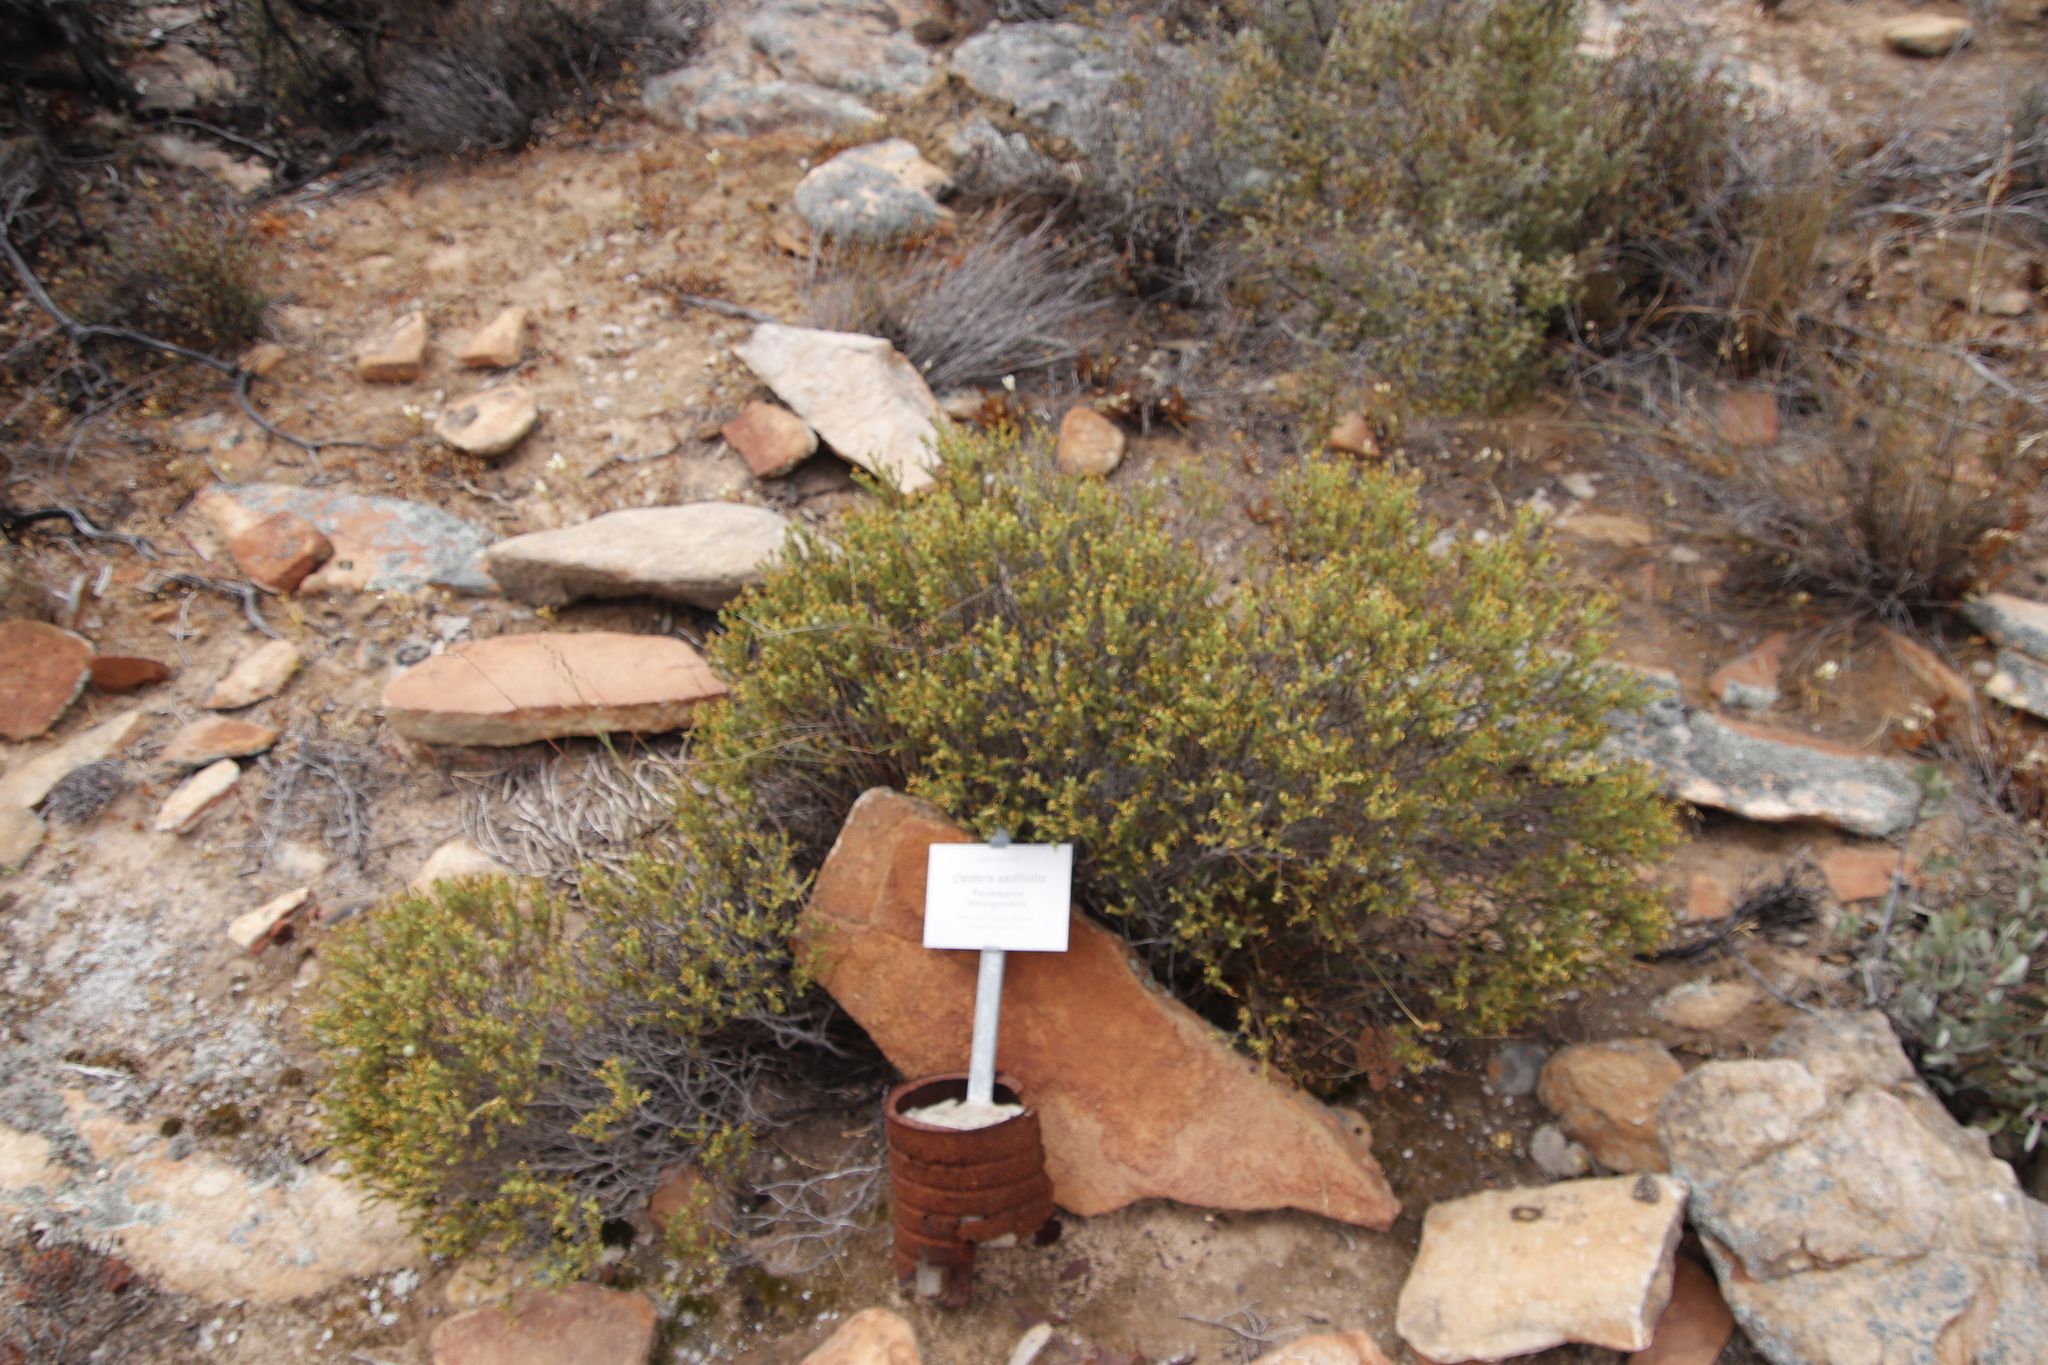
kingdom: Plantae
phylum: Tracheophyta
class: Magnoliopsida
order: Asterales
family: Asteraceae
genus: Oedera
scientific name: Oedera sedifolia
